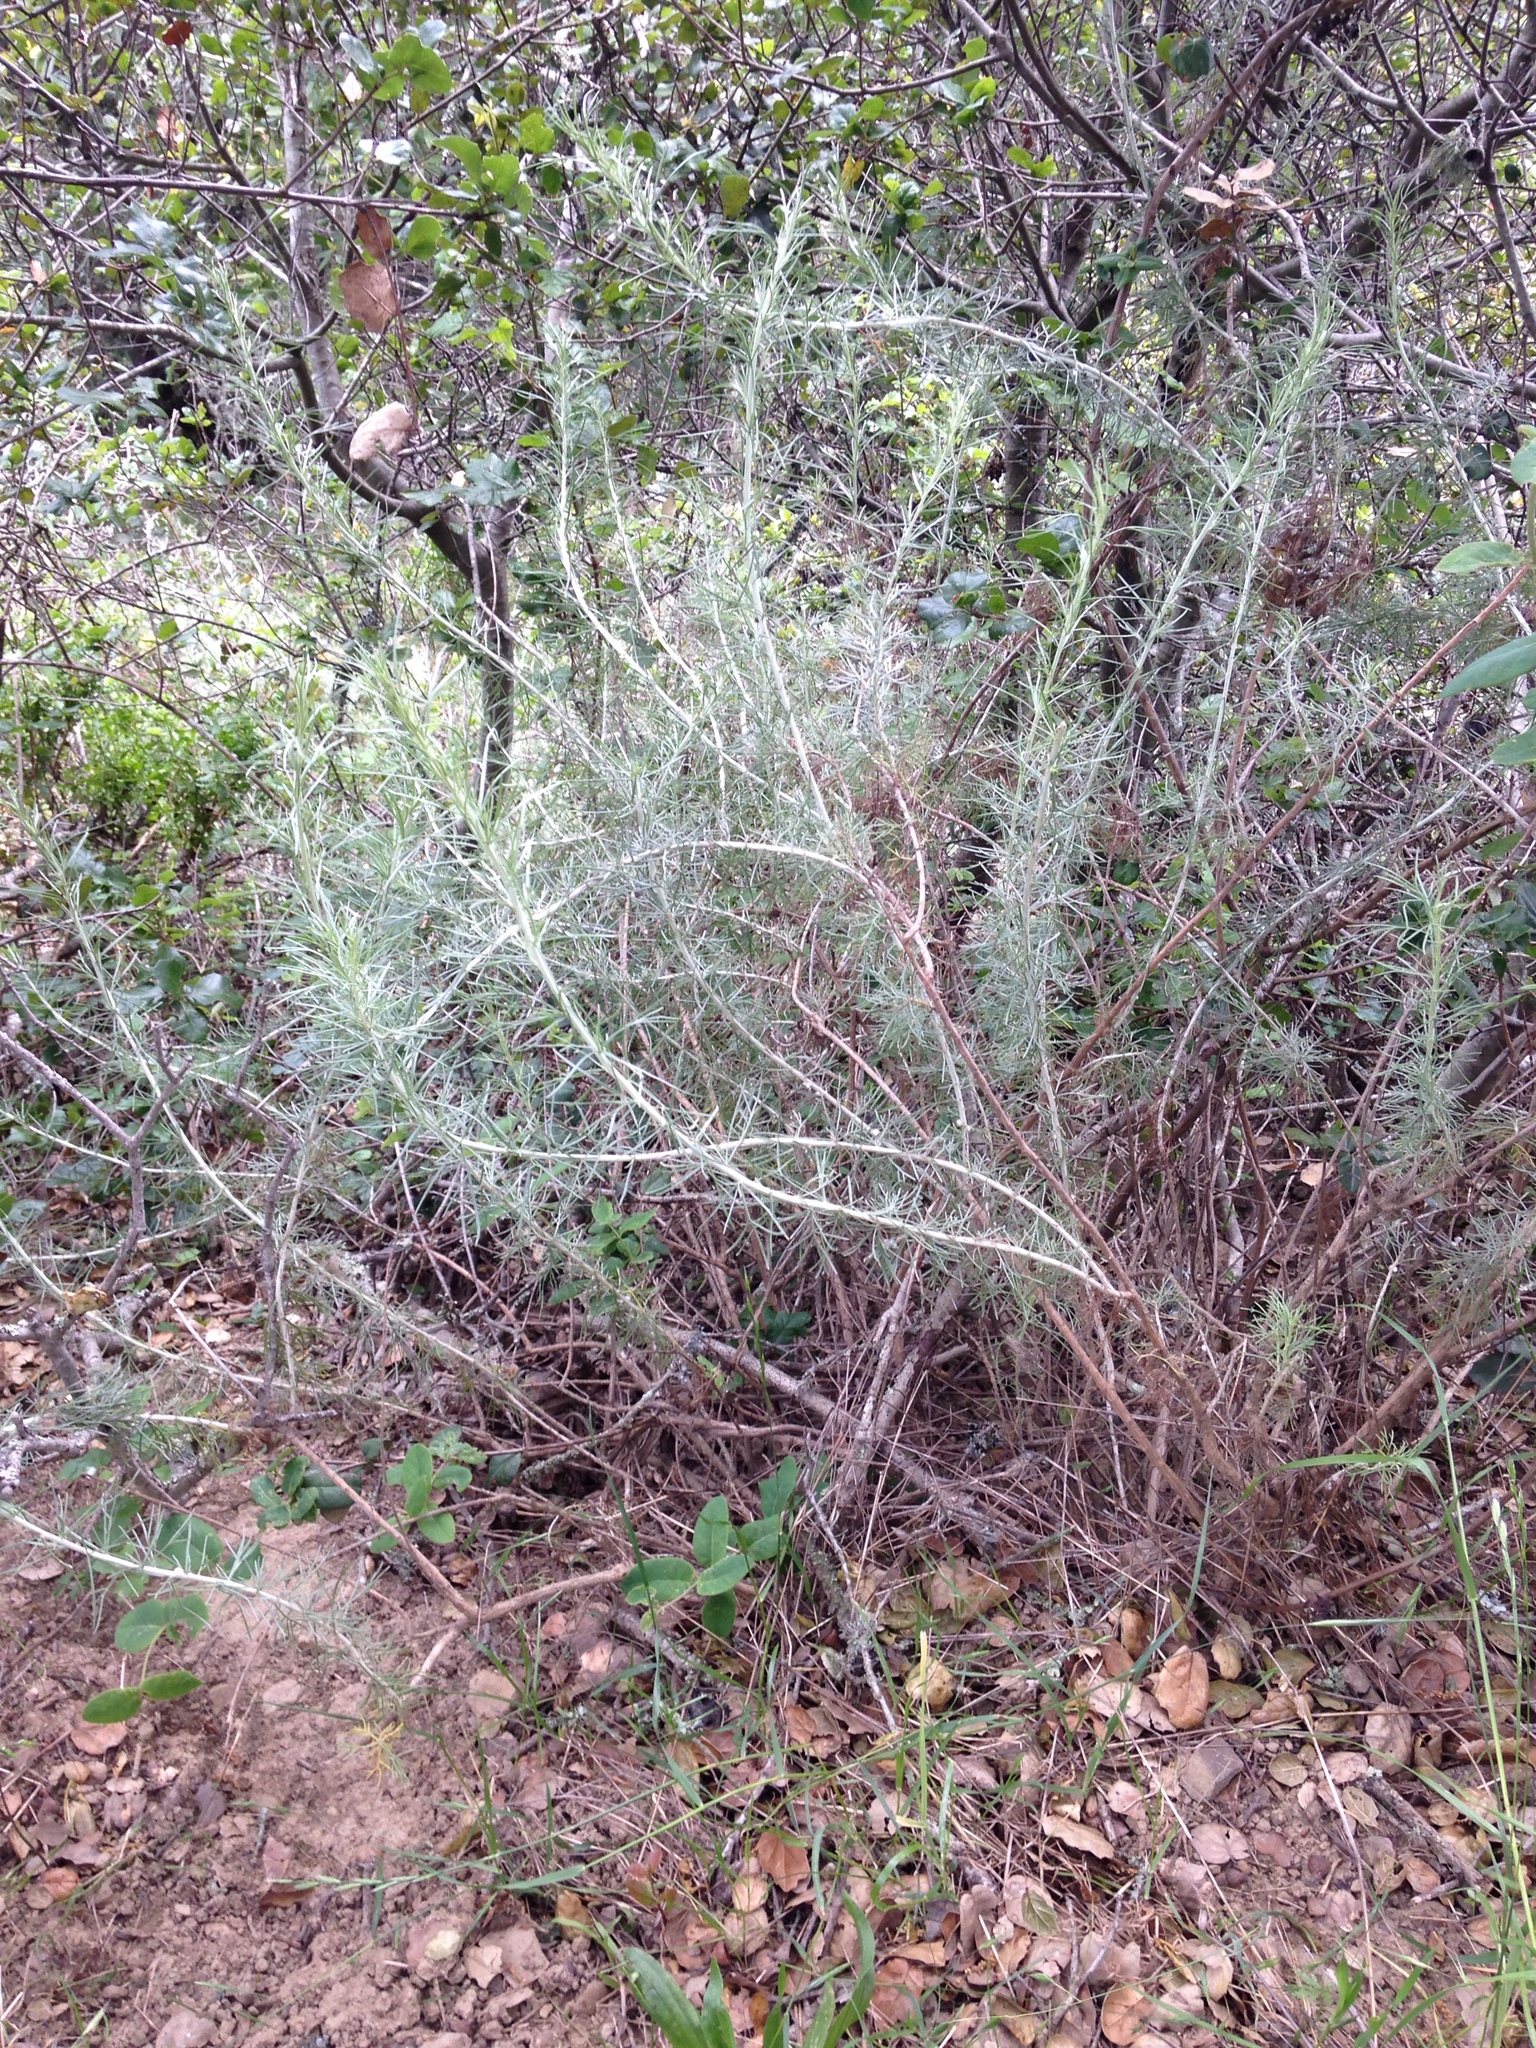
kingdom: Plantae
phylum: Tracheophyta
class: Magnoliopsida
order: Asterales
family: Asteraceae
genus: Artemisia
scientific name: Artemisia californica
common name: California sagebrush
